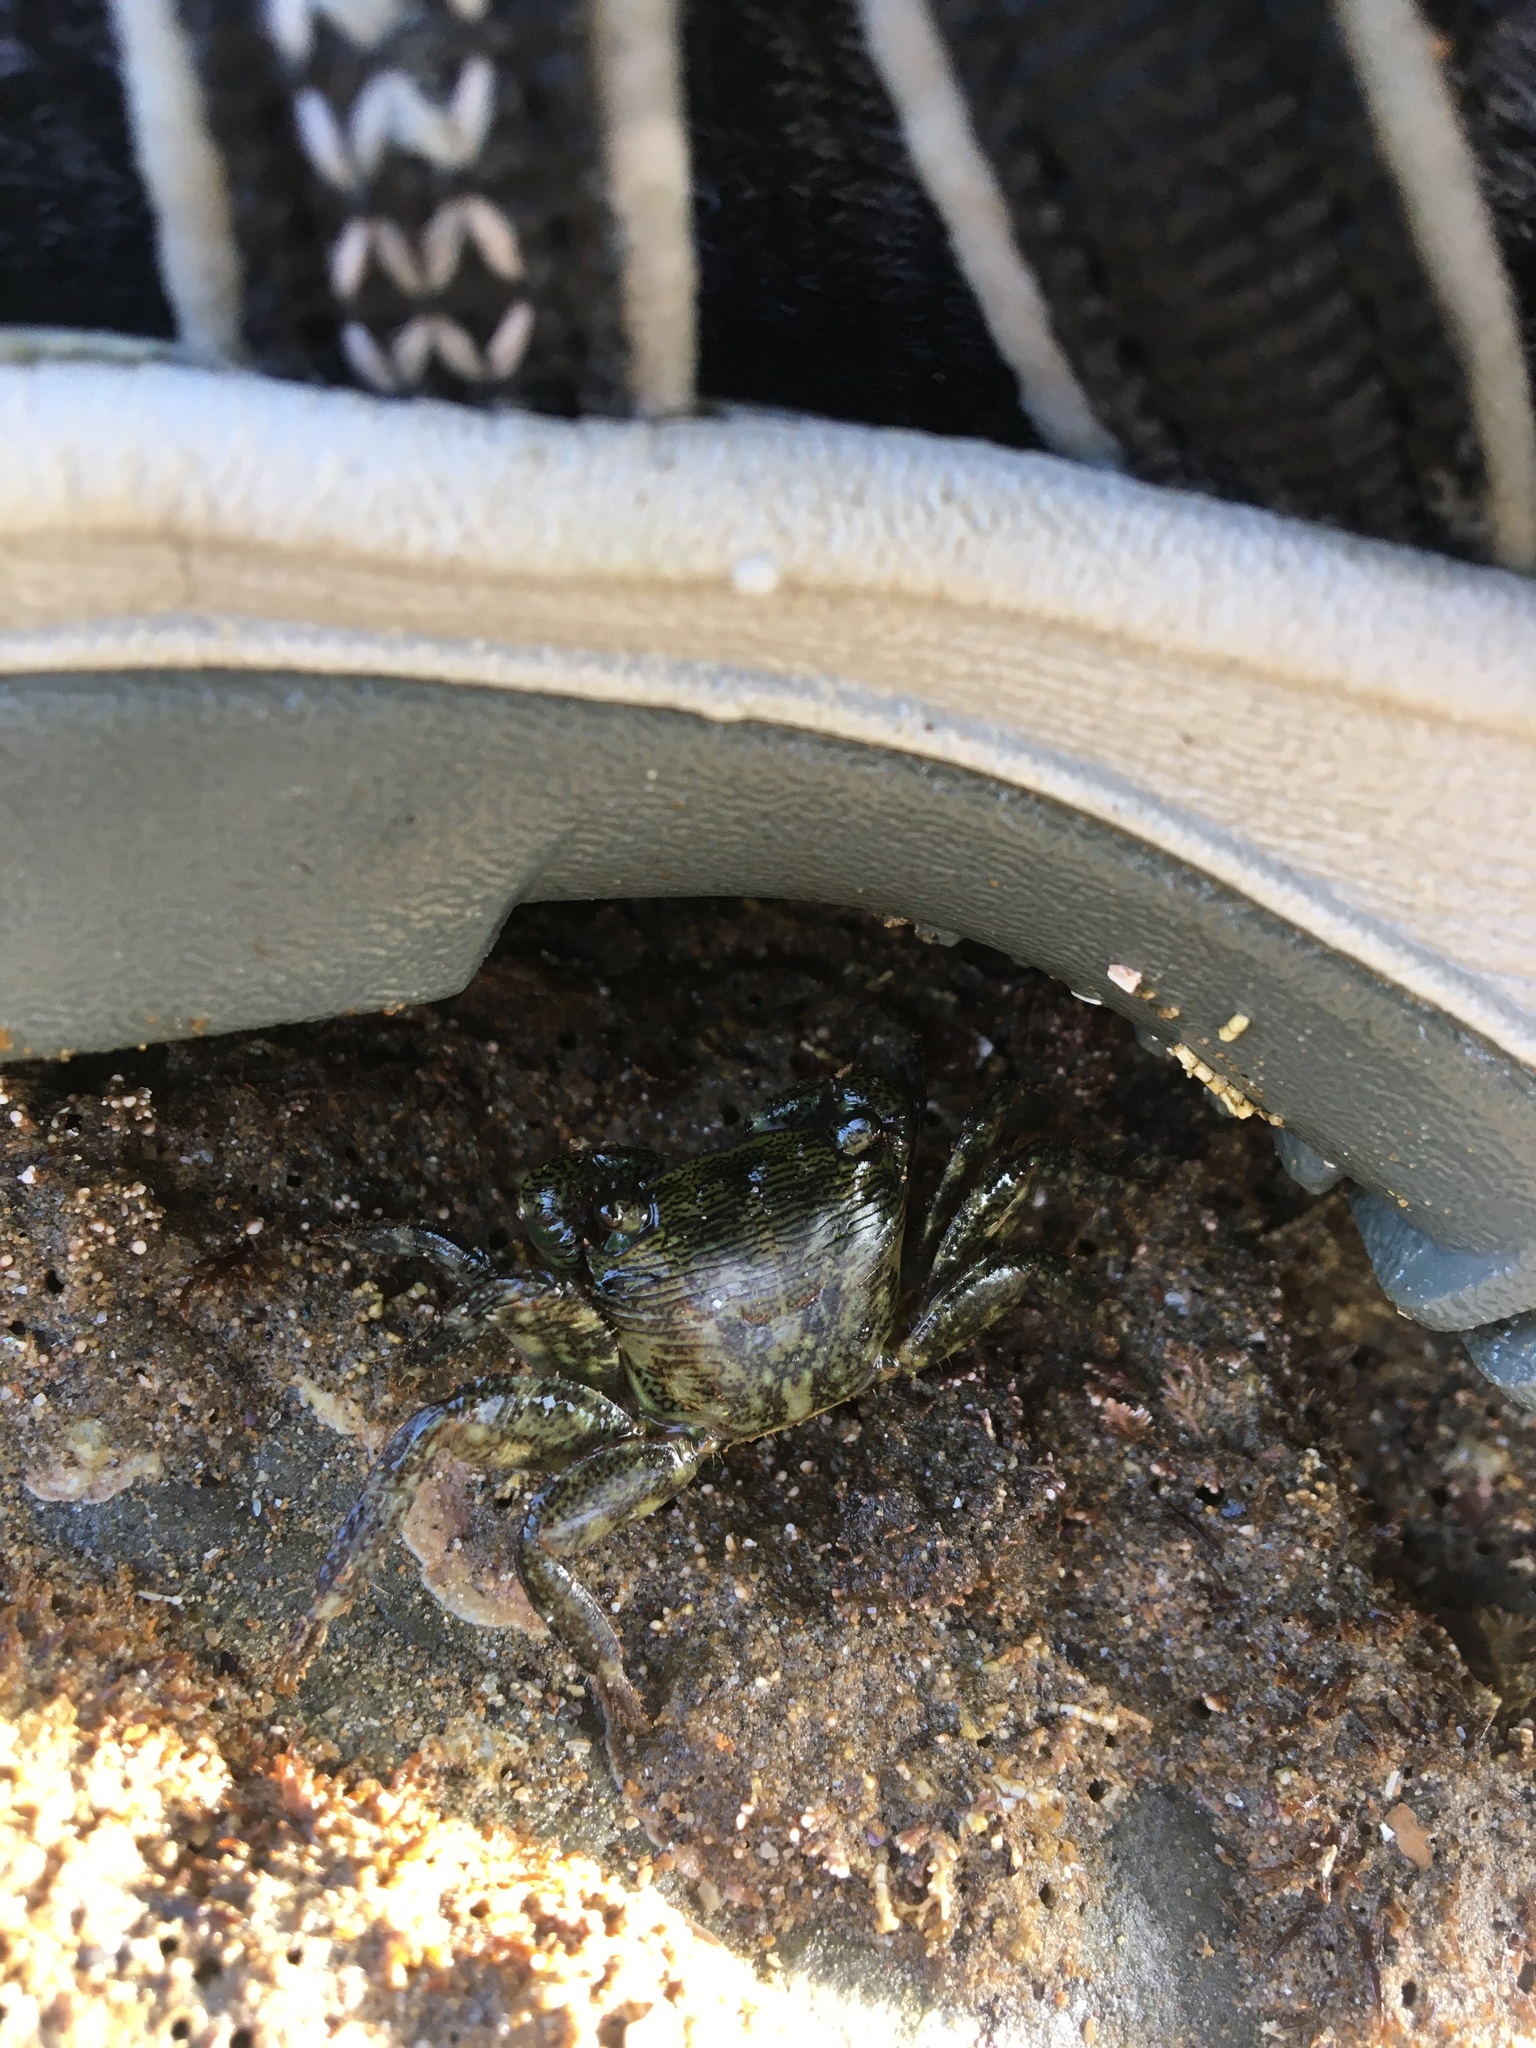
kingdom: Animalia
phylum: Arthropoda
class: Malacostraca
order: Decapoda
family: Grapsidae
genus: Pachygrapsus
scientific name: Pachygrapsus crassipes
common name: Striped shore crab
